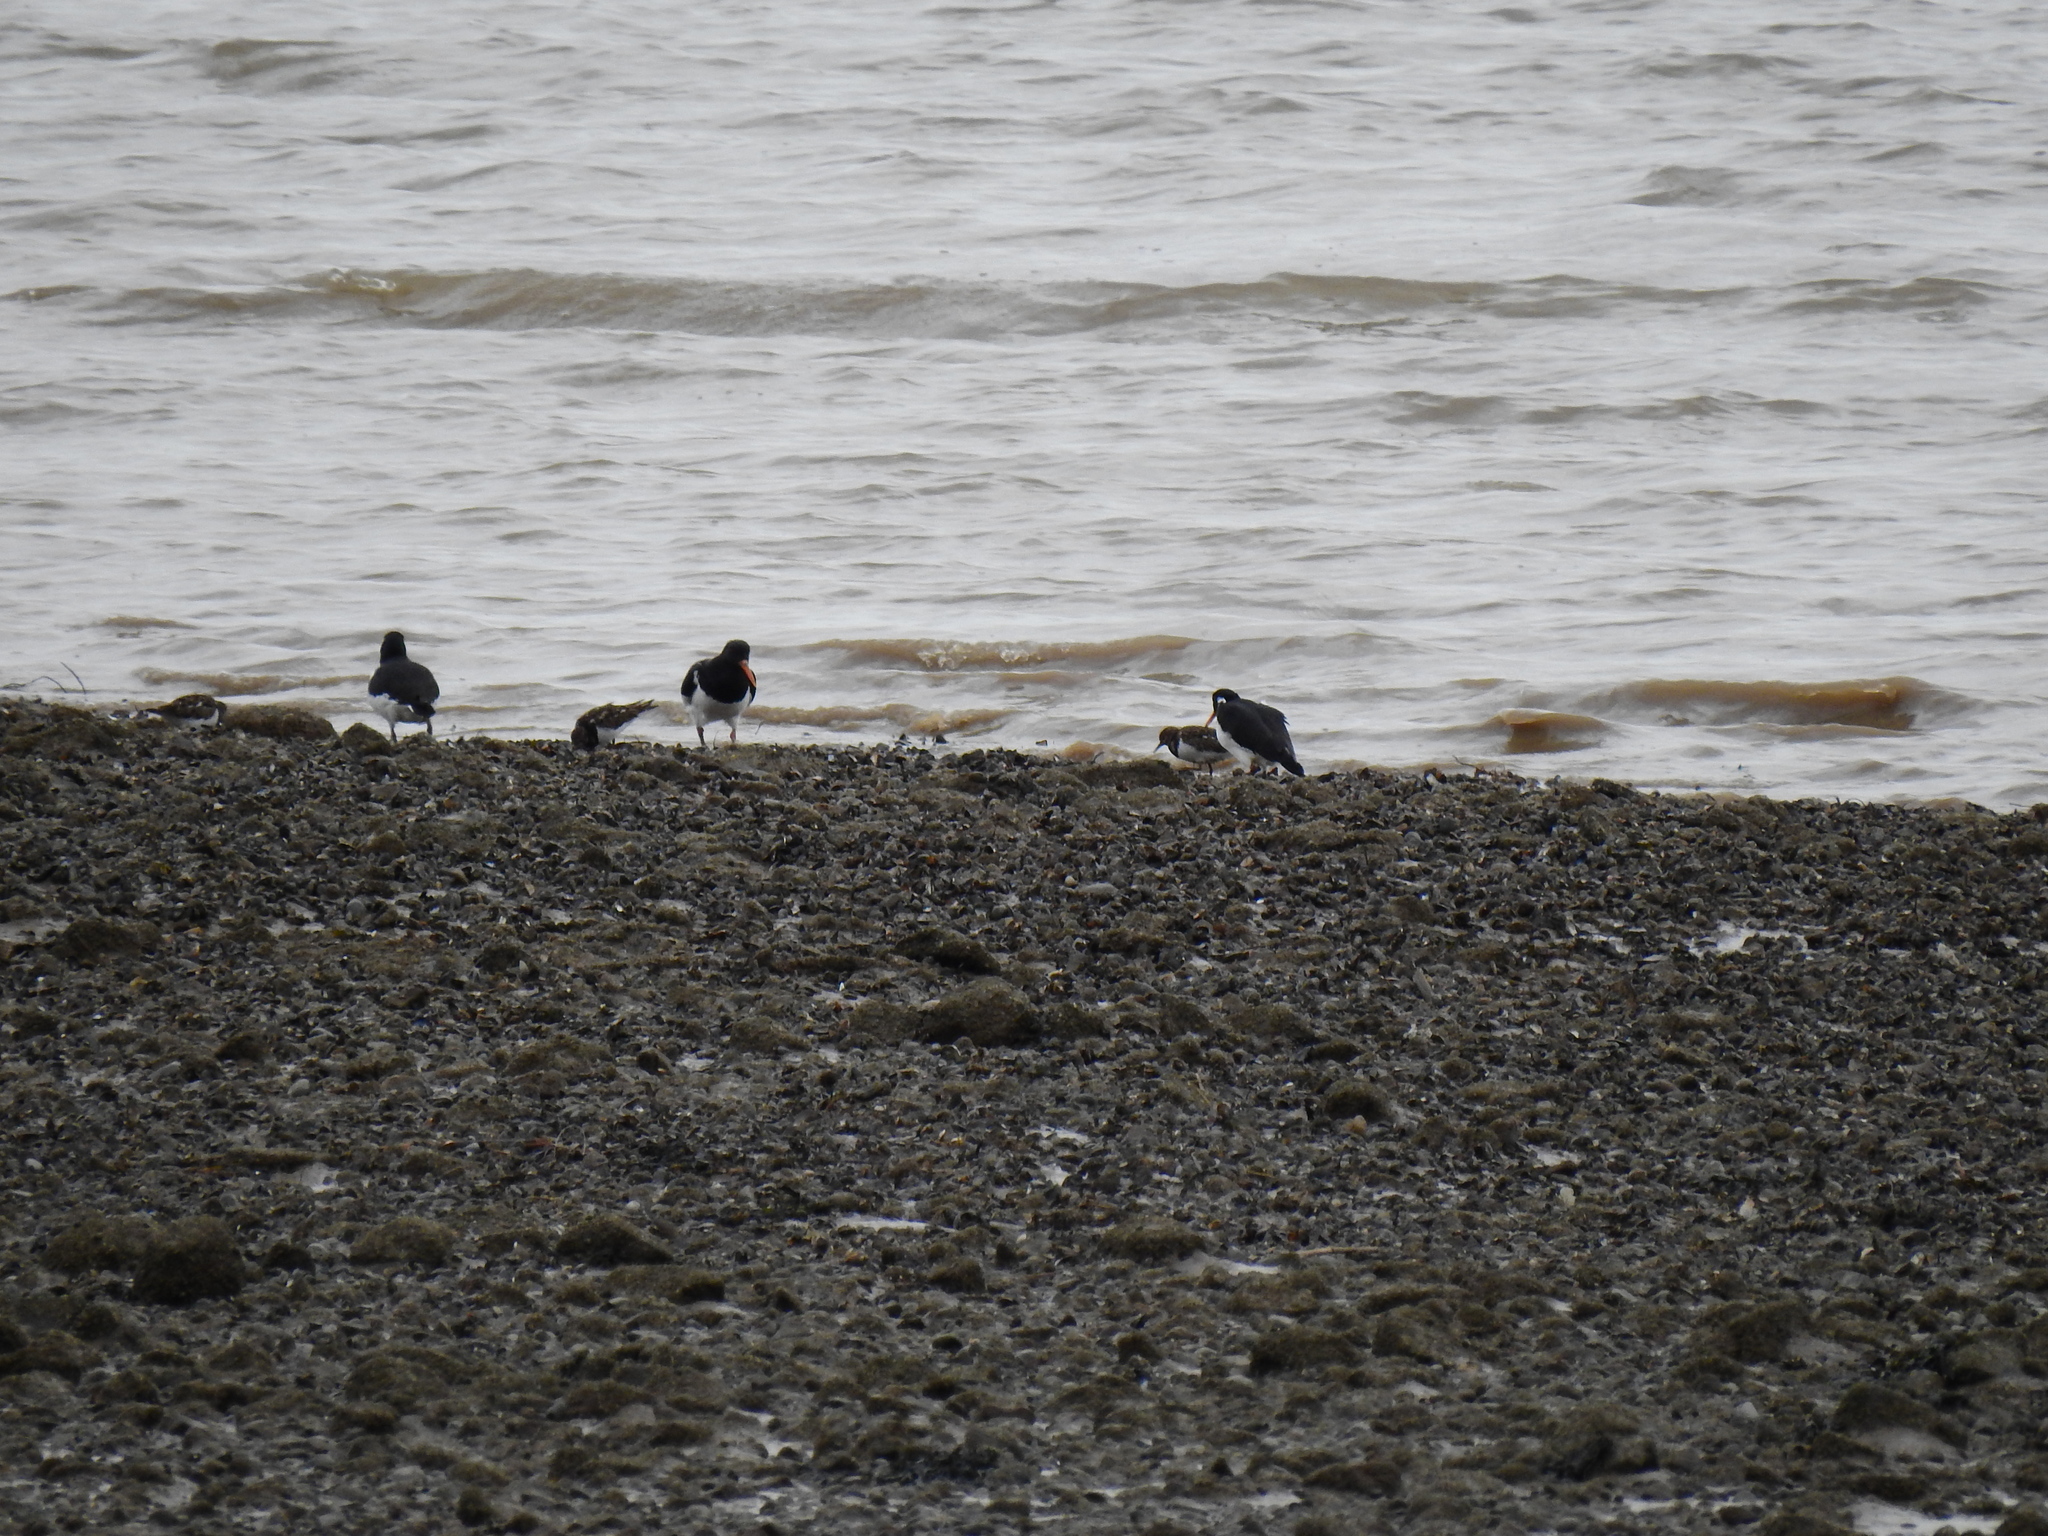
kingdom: Animalia
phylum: Chordata
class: Aves
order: Charadriiformes
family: Haematopodidae
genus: Haematopus
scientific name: Haematopus ostralegus
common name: Eurasian oystercatcher
